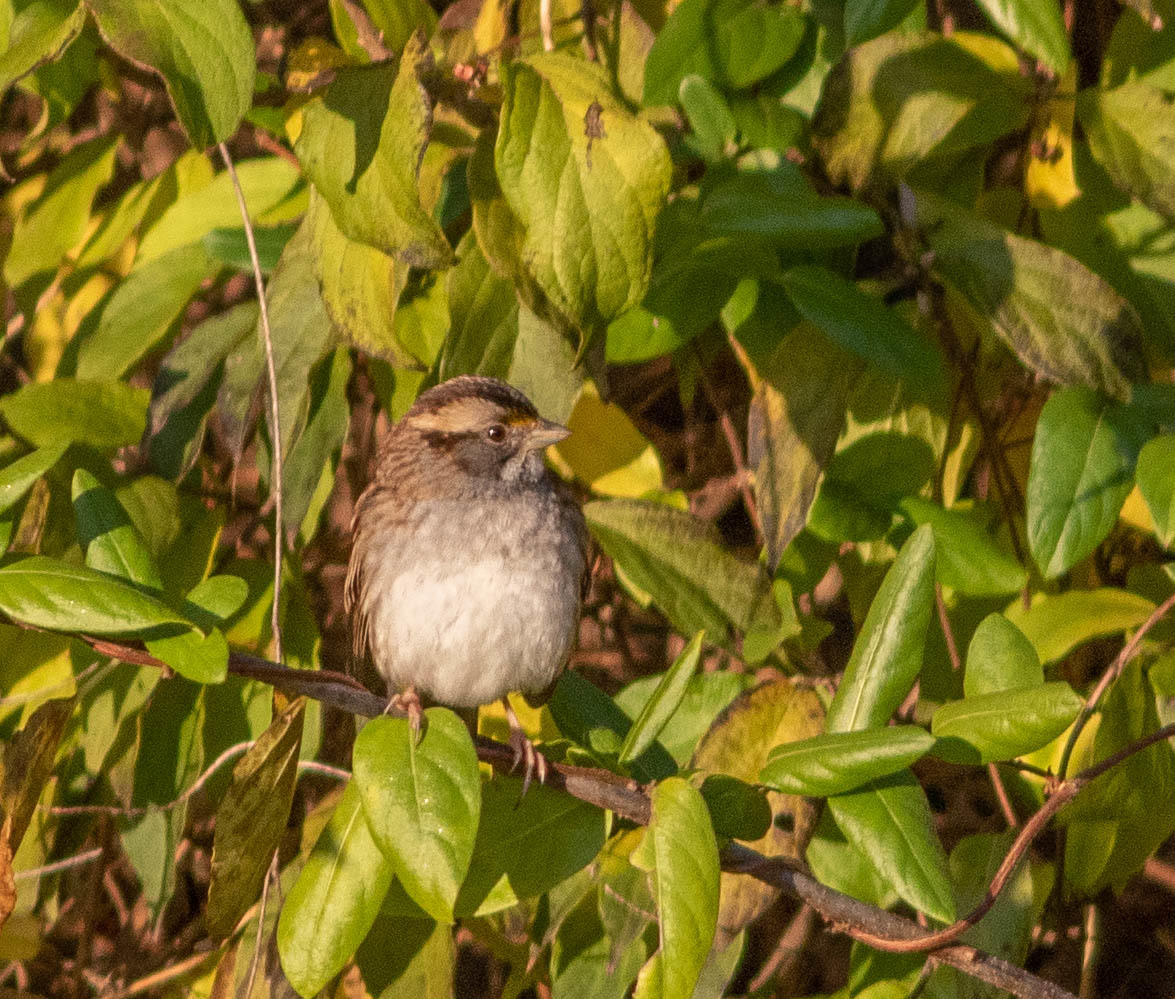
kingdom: Animalia
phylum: Chordata
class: Aves
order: Passeriformes
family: Passerellidae
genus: Zonotrichia
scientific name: Zonotrichia albicollis
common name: White-throated sparrow
